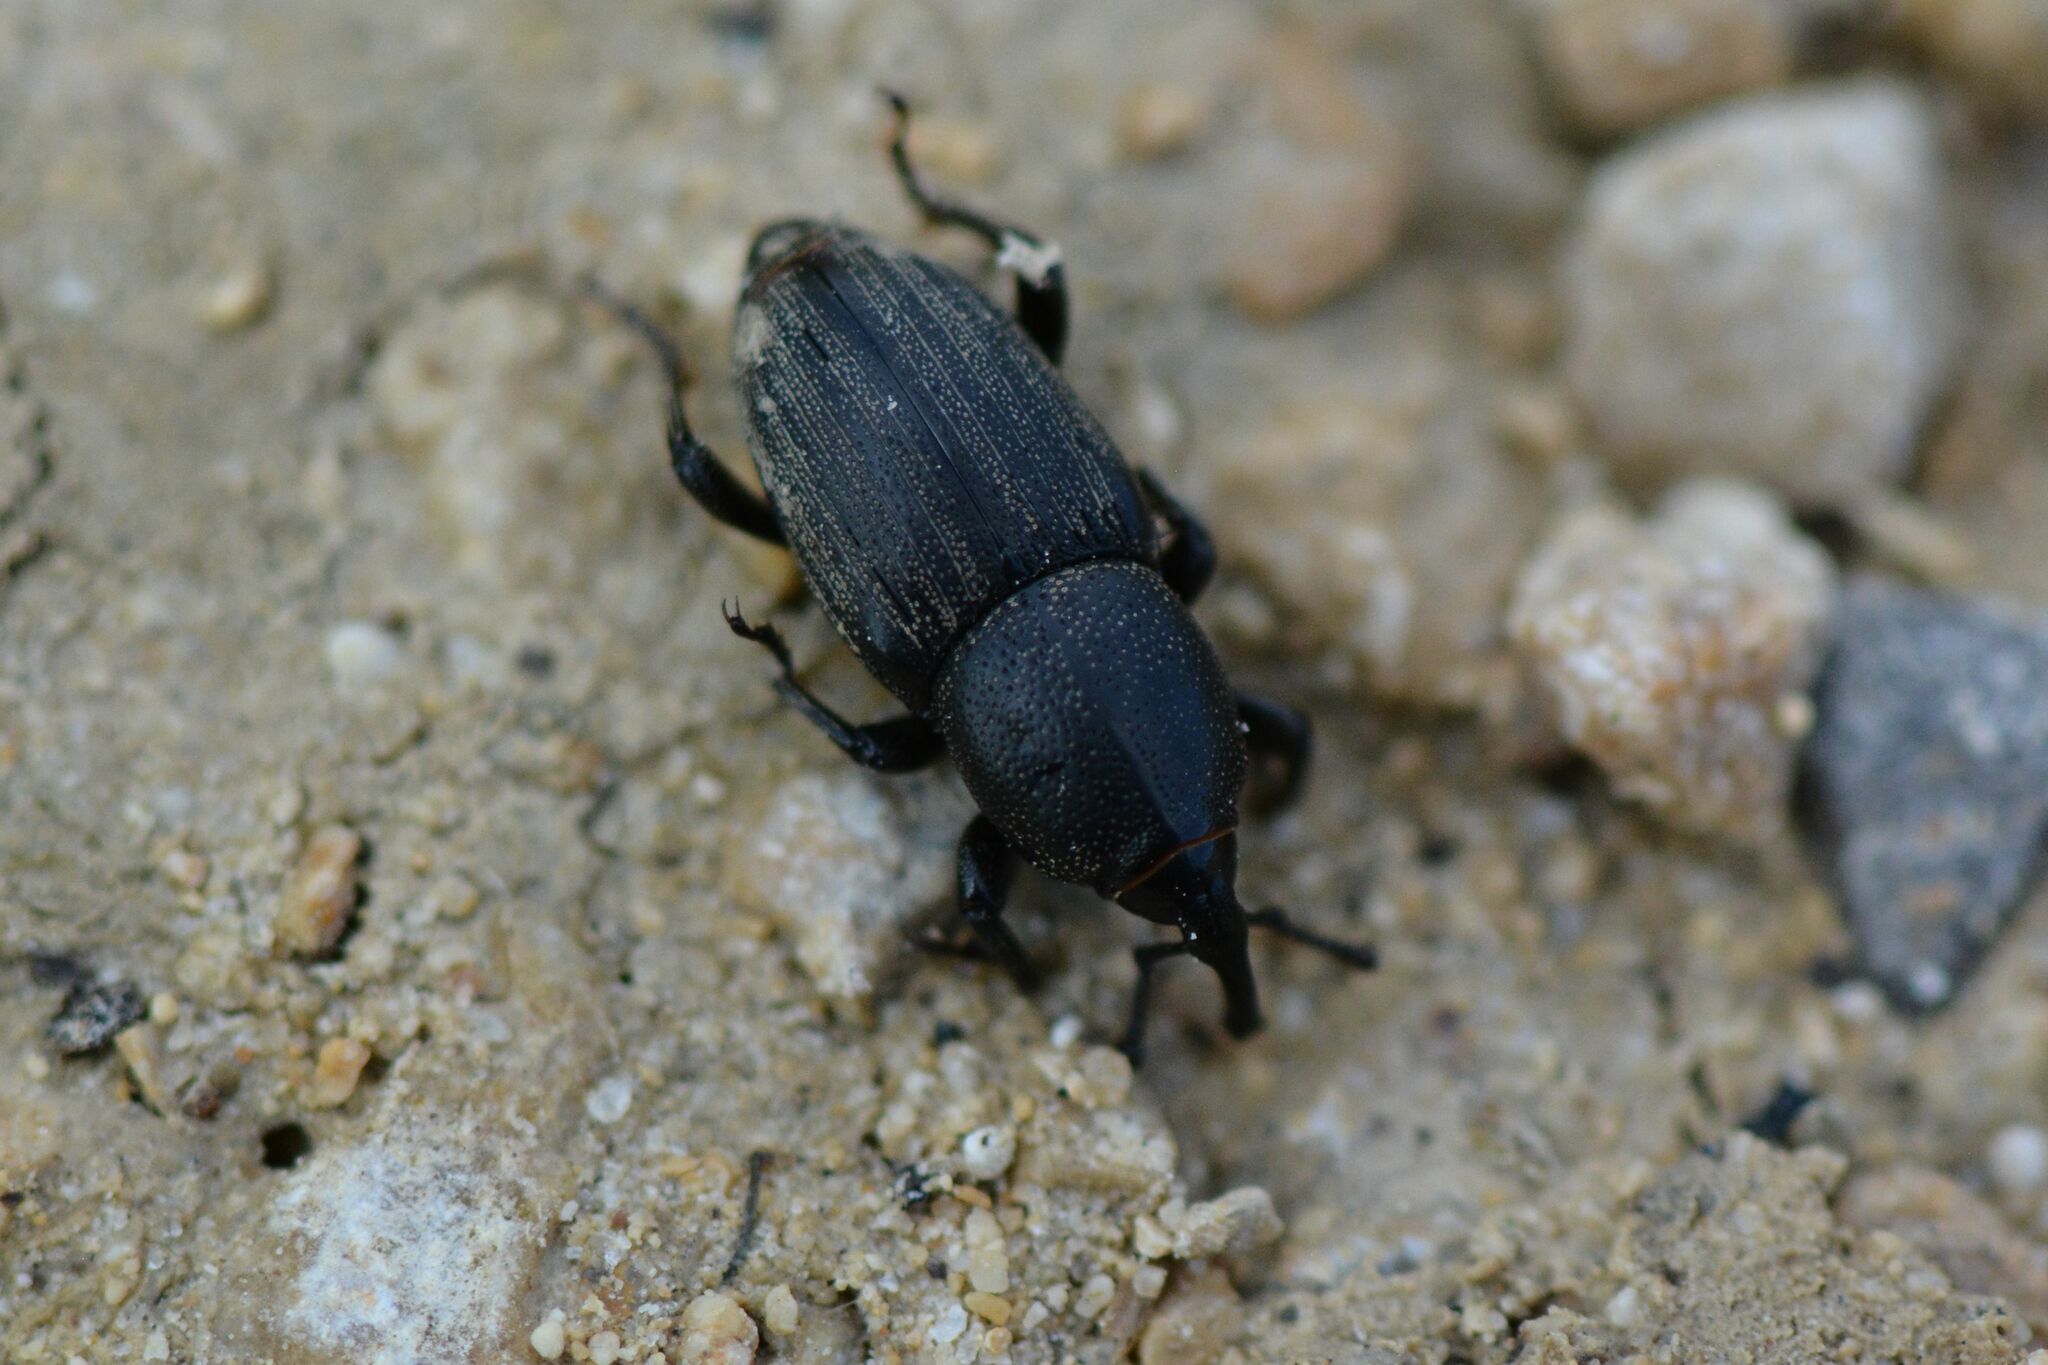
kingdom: Animalia
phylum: Arthropoda
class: Insecta
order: Coleoptera
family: Dryophthoridae
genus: Sphenophorus
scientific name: Sphenophorus striatopunctatus
